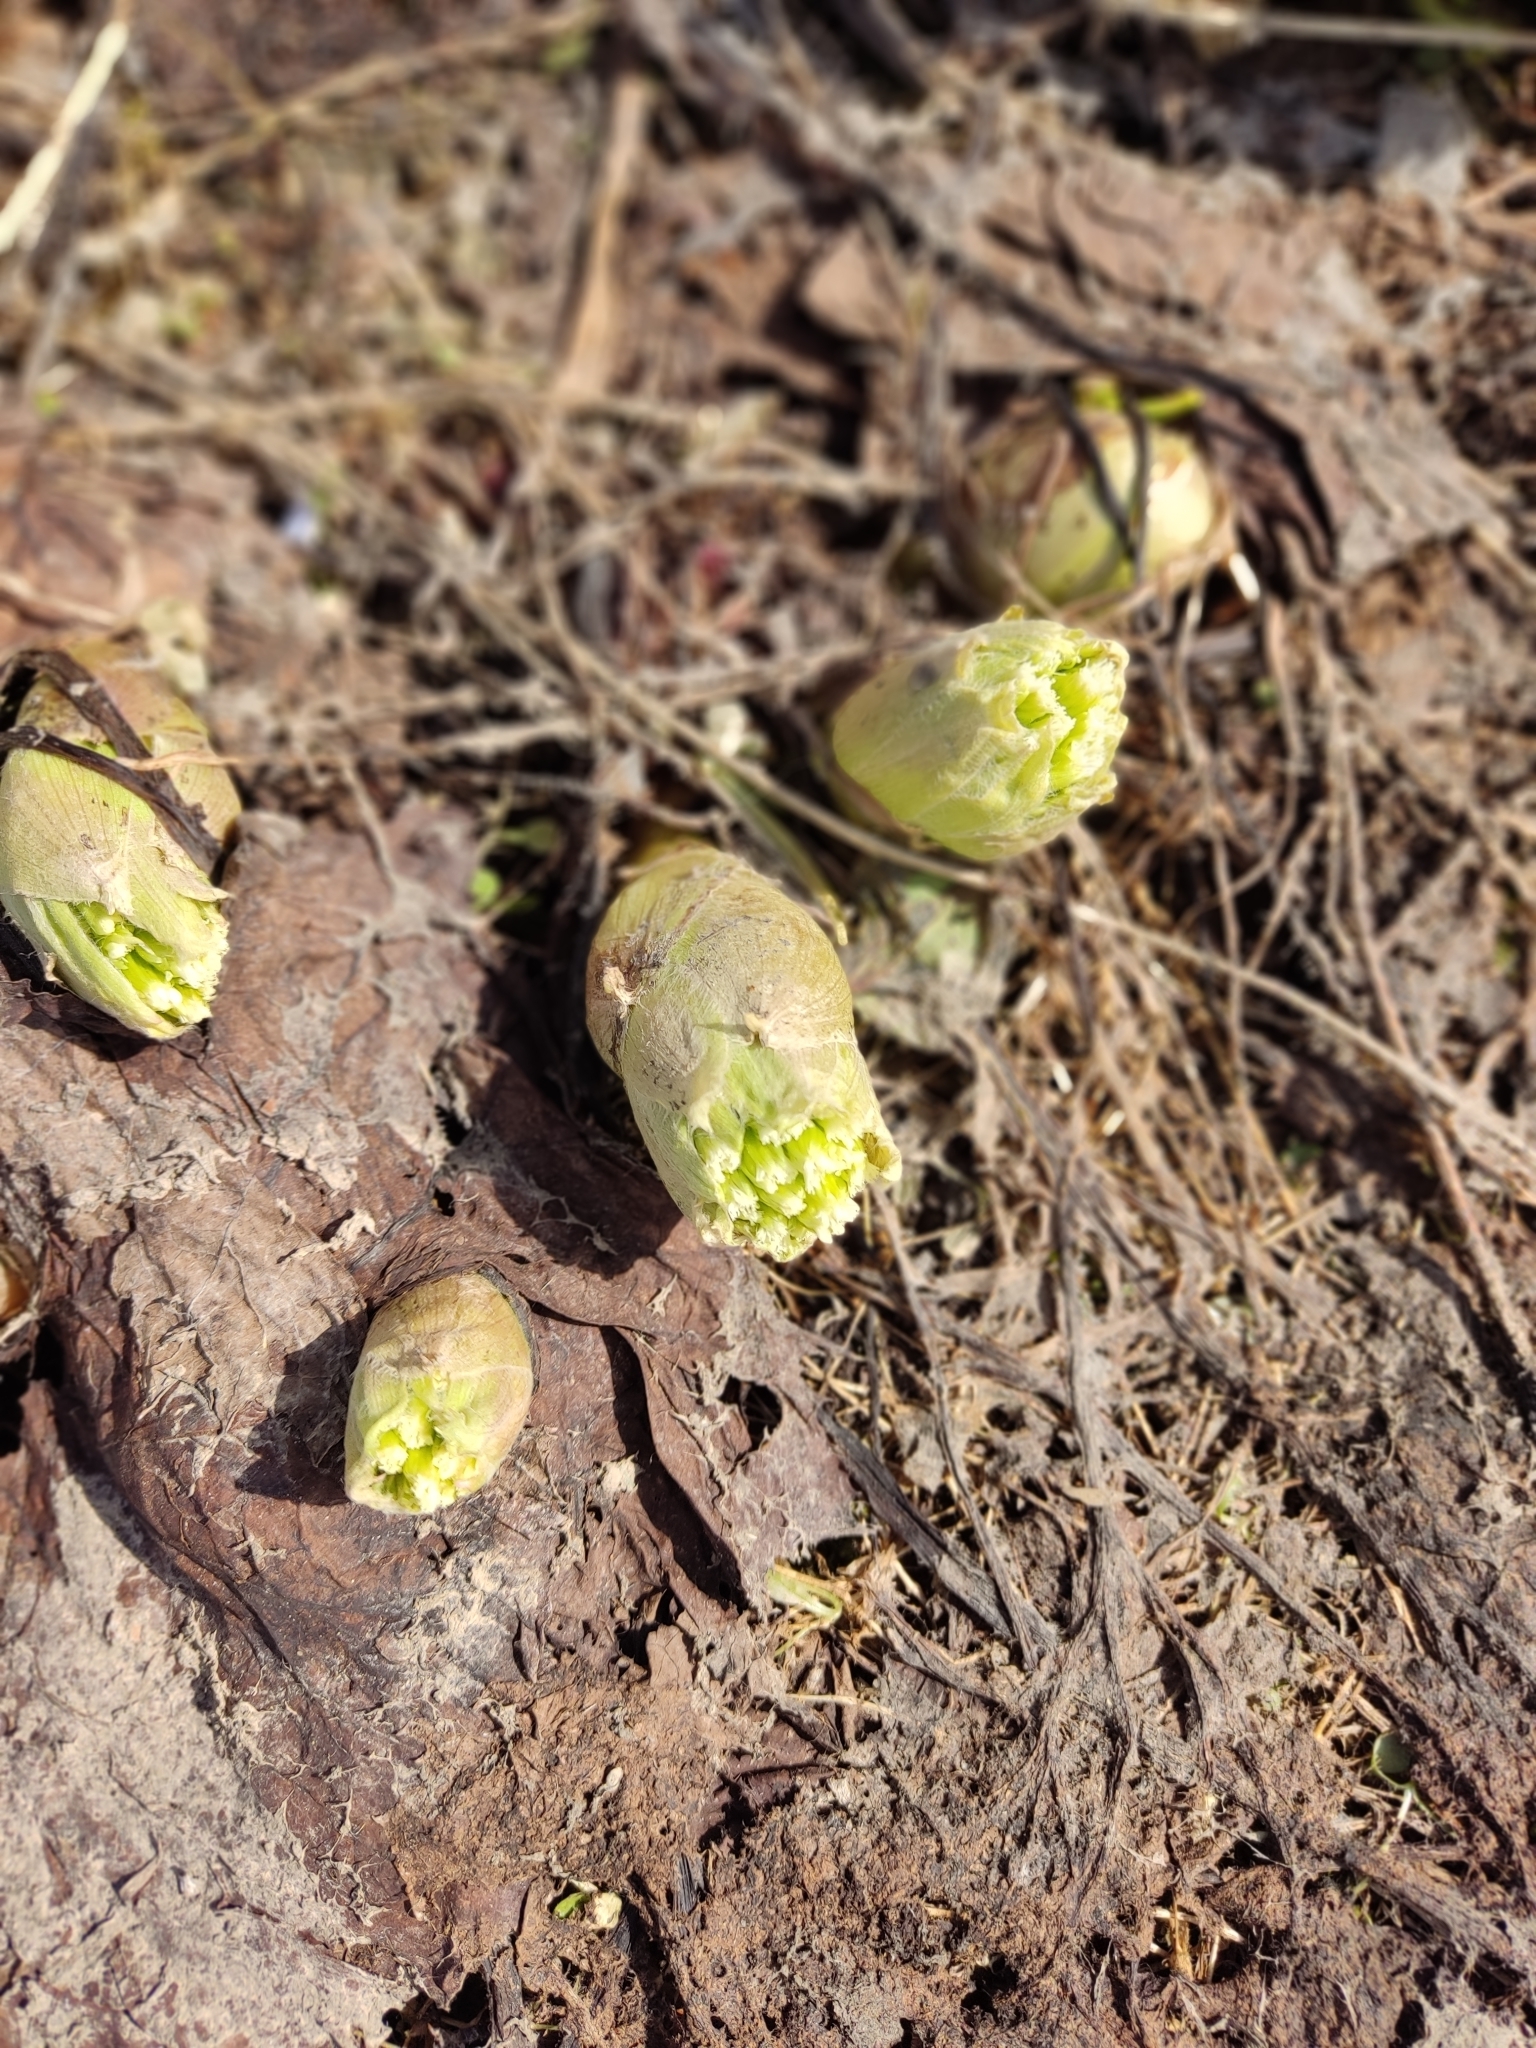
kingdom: Plantae
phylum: Tracheophyta
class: Magnoliopsida
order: Asterales
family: Asteraceae
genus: Petasites
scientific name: Petasites albus
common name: White butterbur
